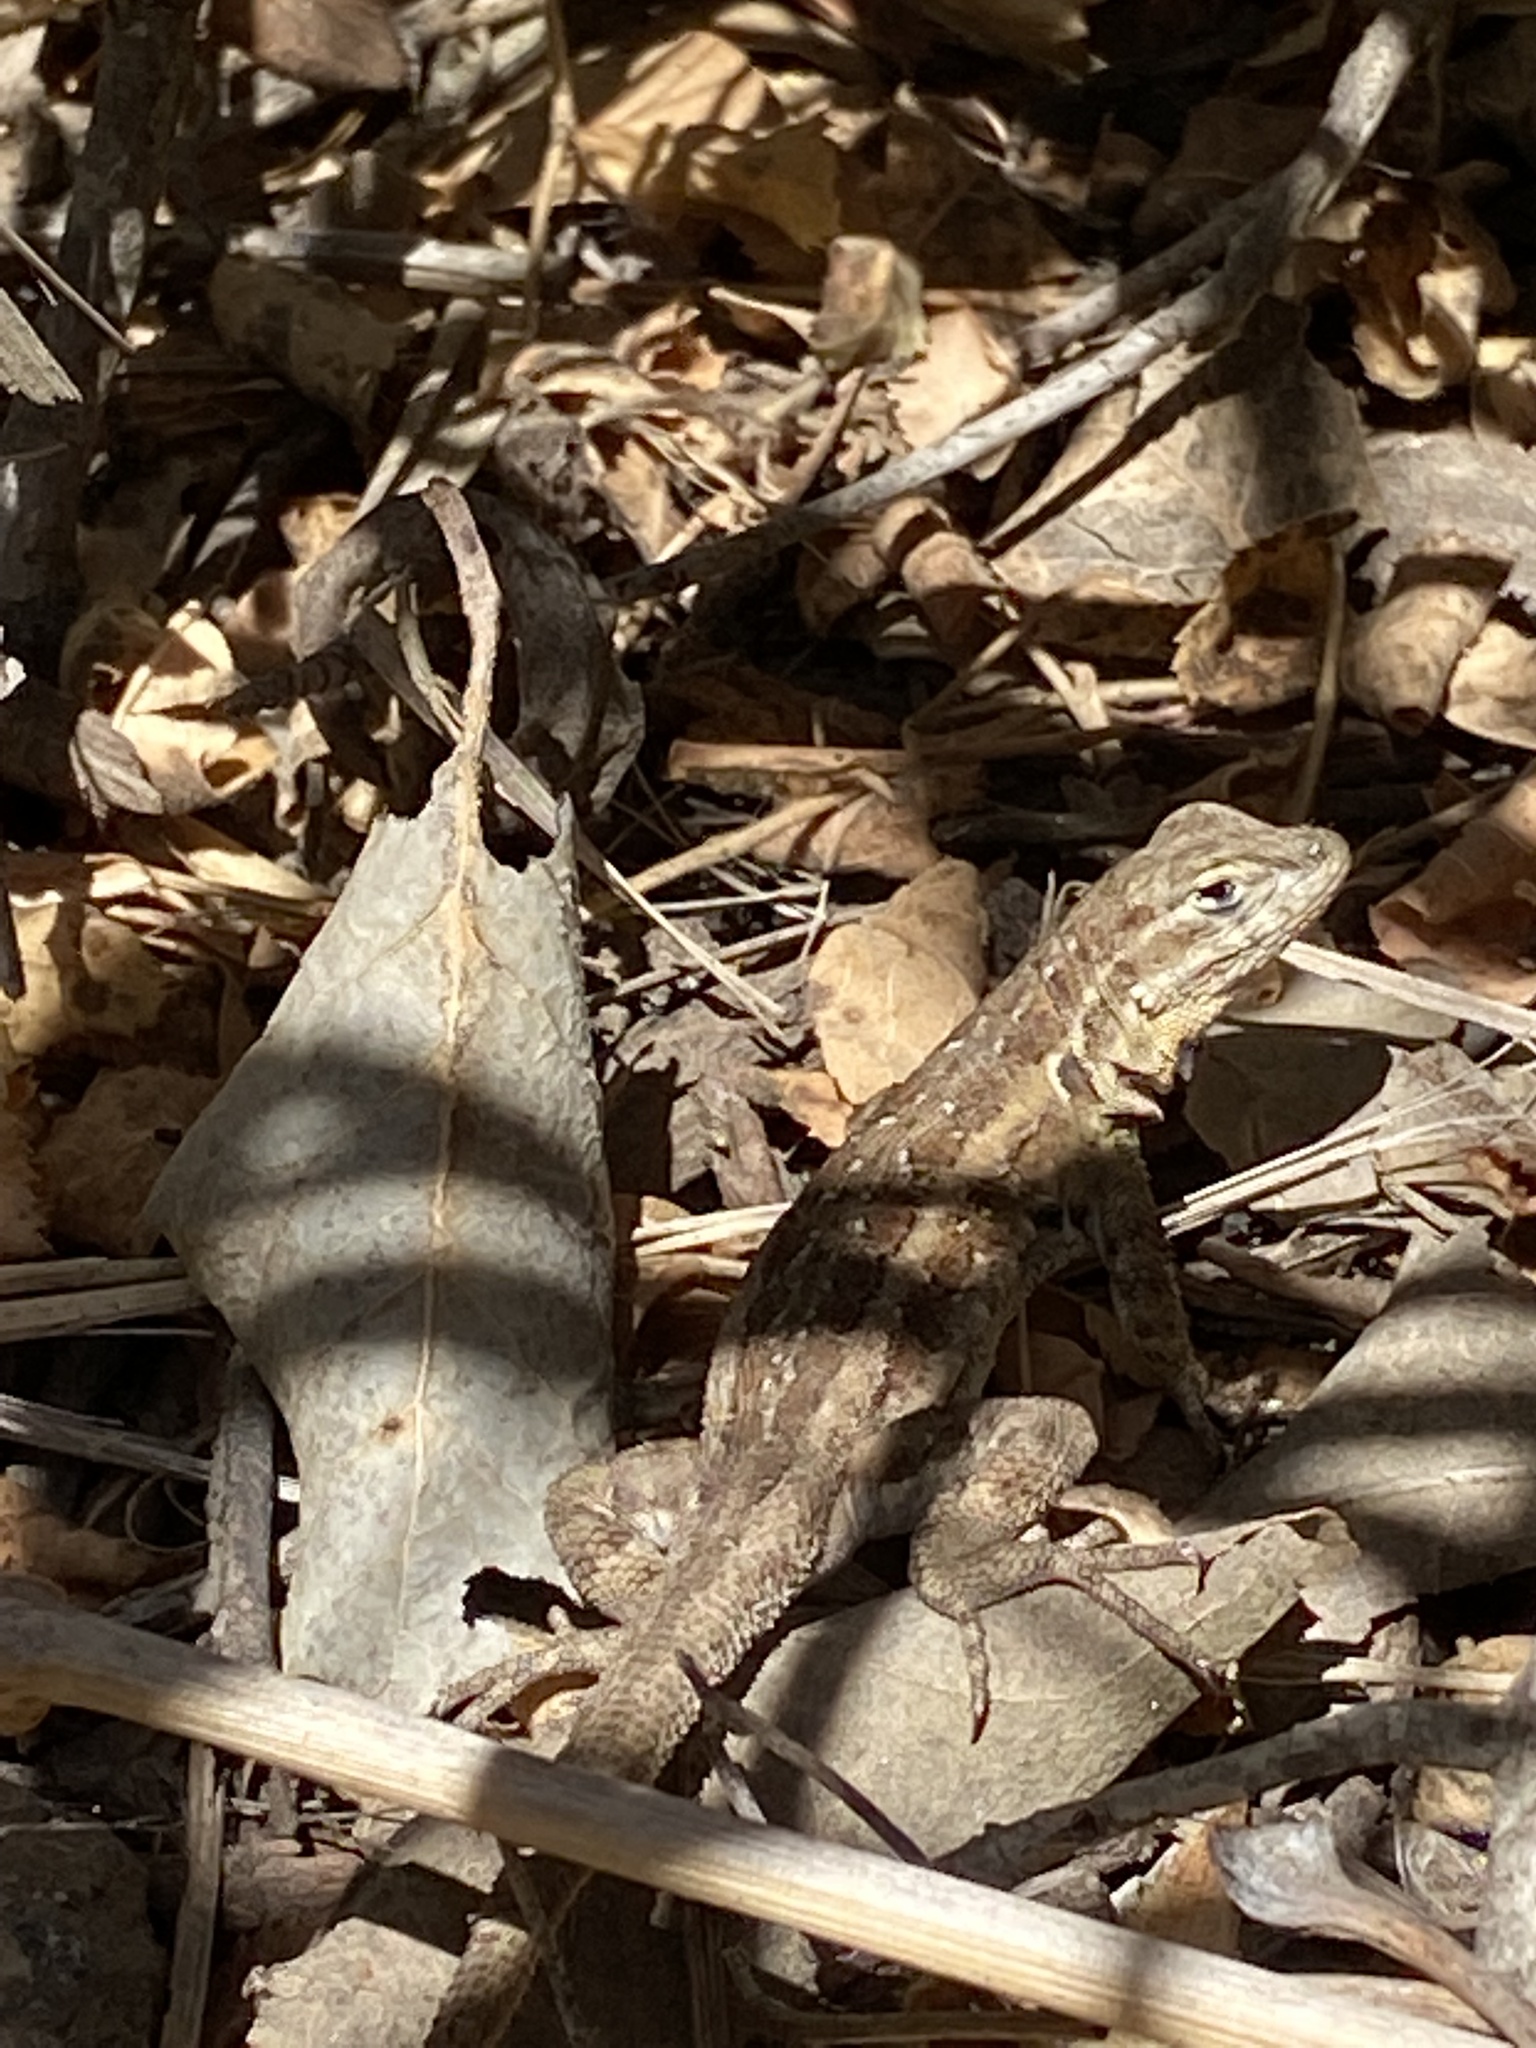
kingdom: Animalia
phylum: Chordata
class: Squamata
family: Phrynosomatidae
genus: Uta
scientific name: Uta stansburiana
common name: Side-blotched lizard
